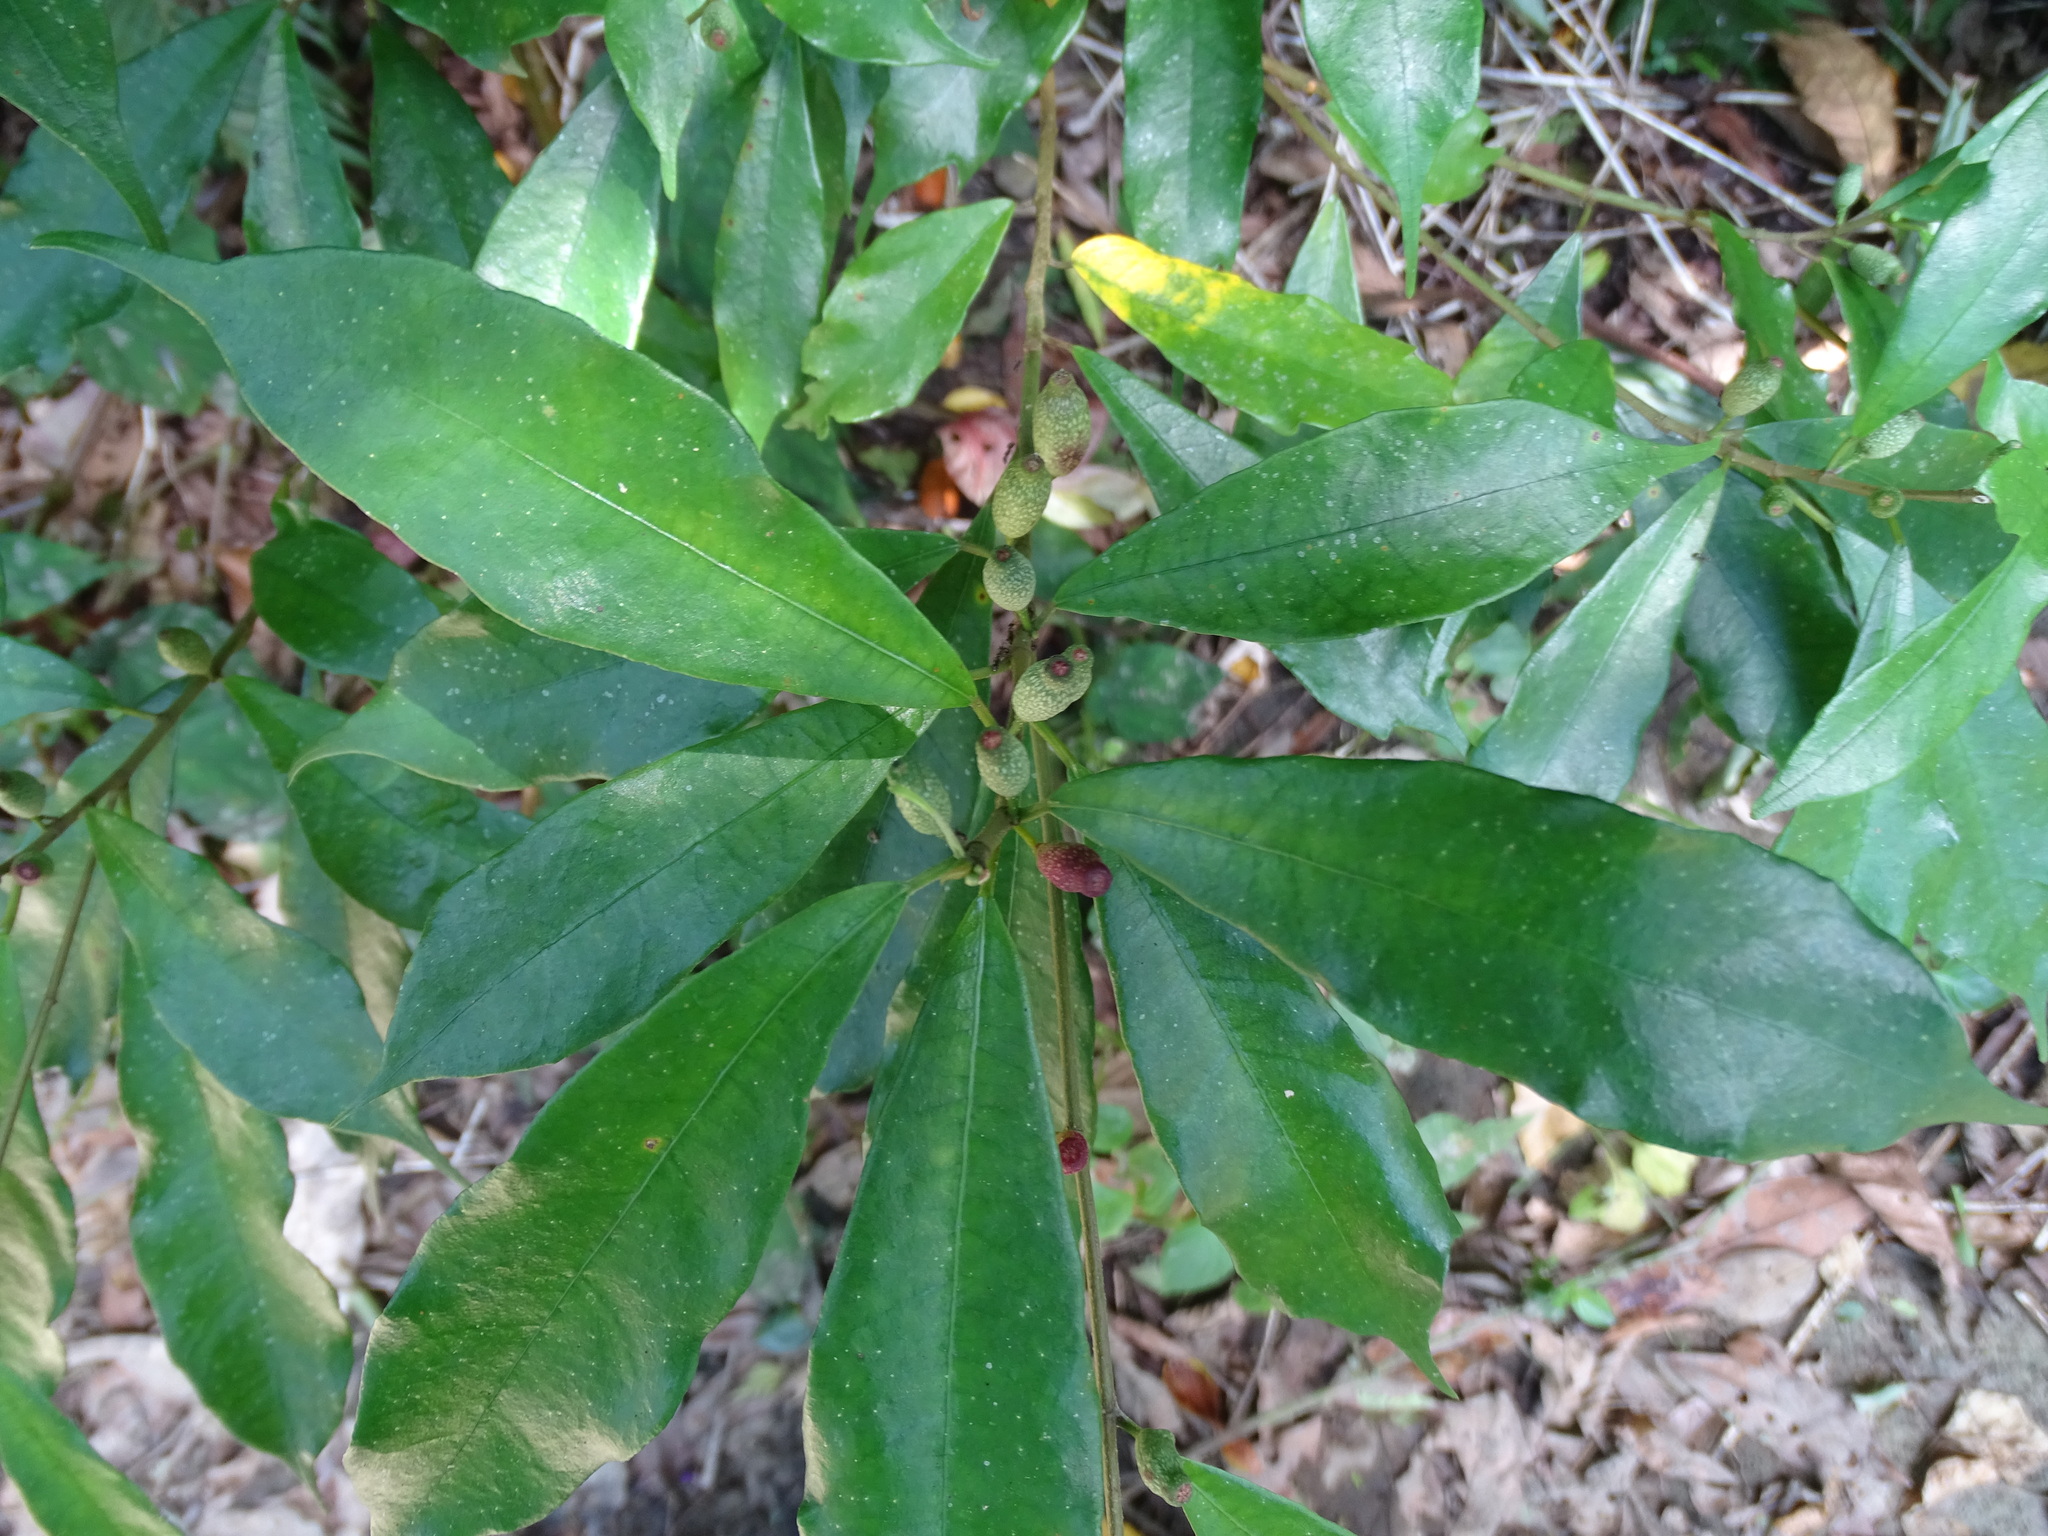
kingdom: Plantae
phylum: Tracheophyta
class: Magnoliopsida
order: Rosales
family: Moraceae
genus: Ficus
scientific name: Ficus formosana
